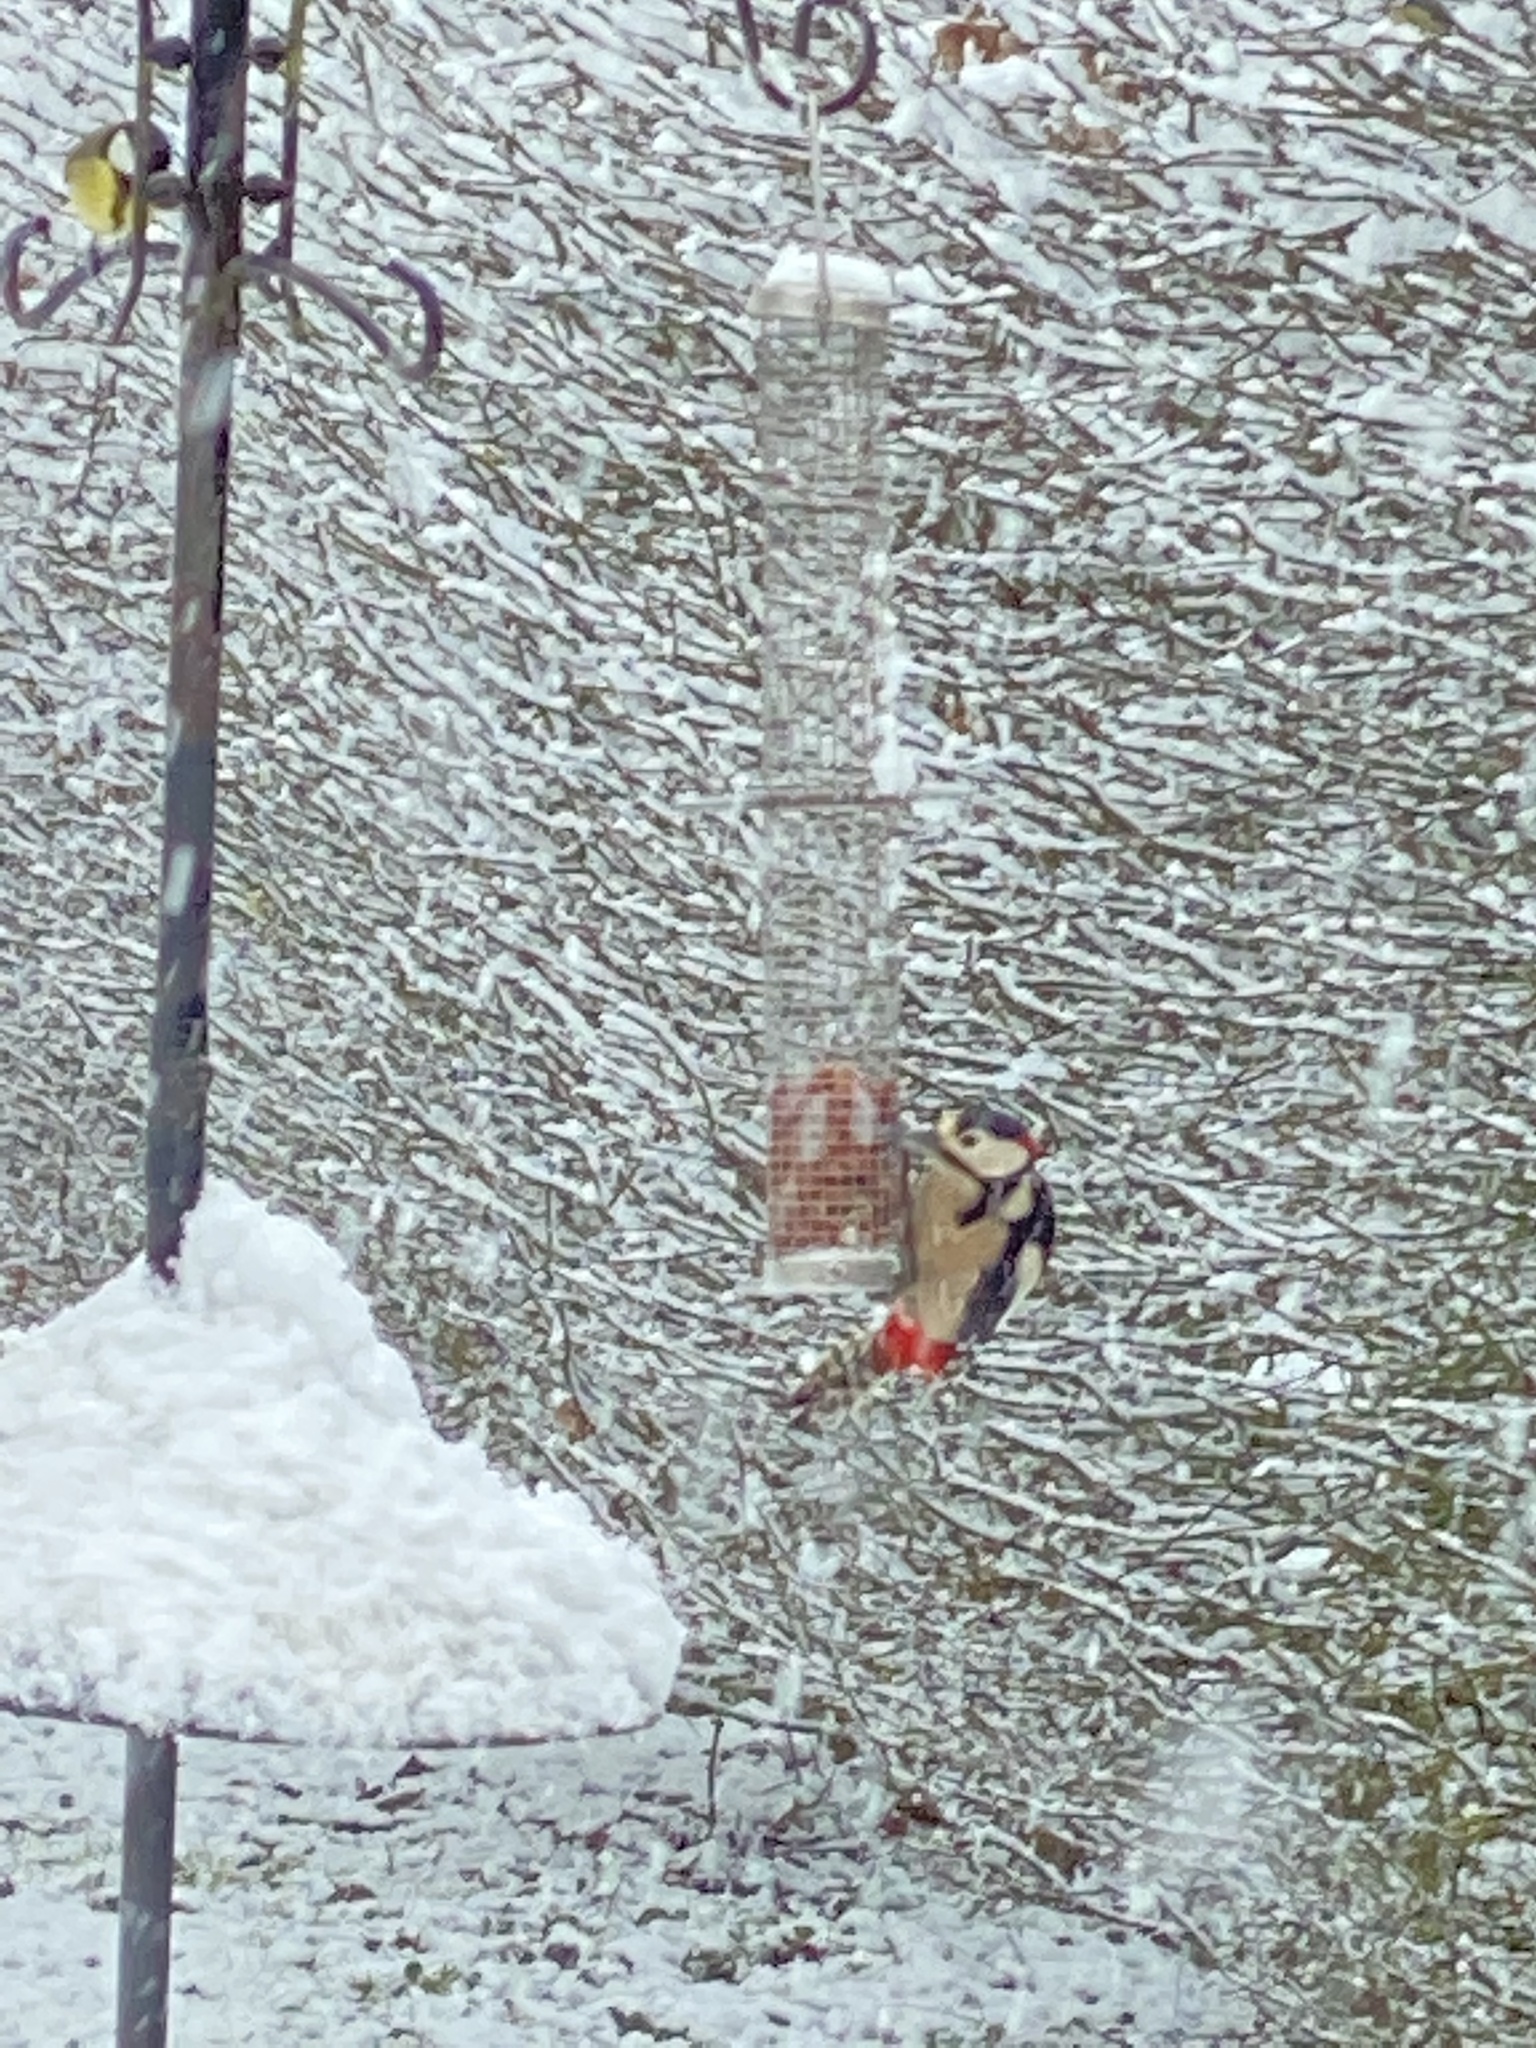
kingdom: Animalia
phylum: Chordata
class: Aves
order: Piciformes
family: Picidae
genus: Dendrocopos
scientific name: Dendrocopos major
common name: Great spotted woodpecker
